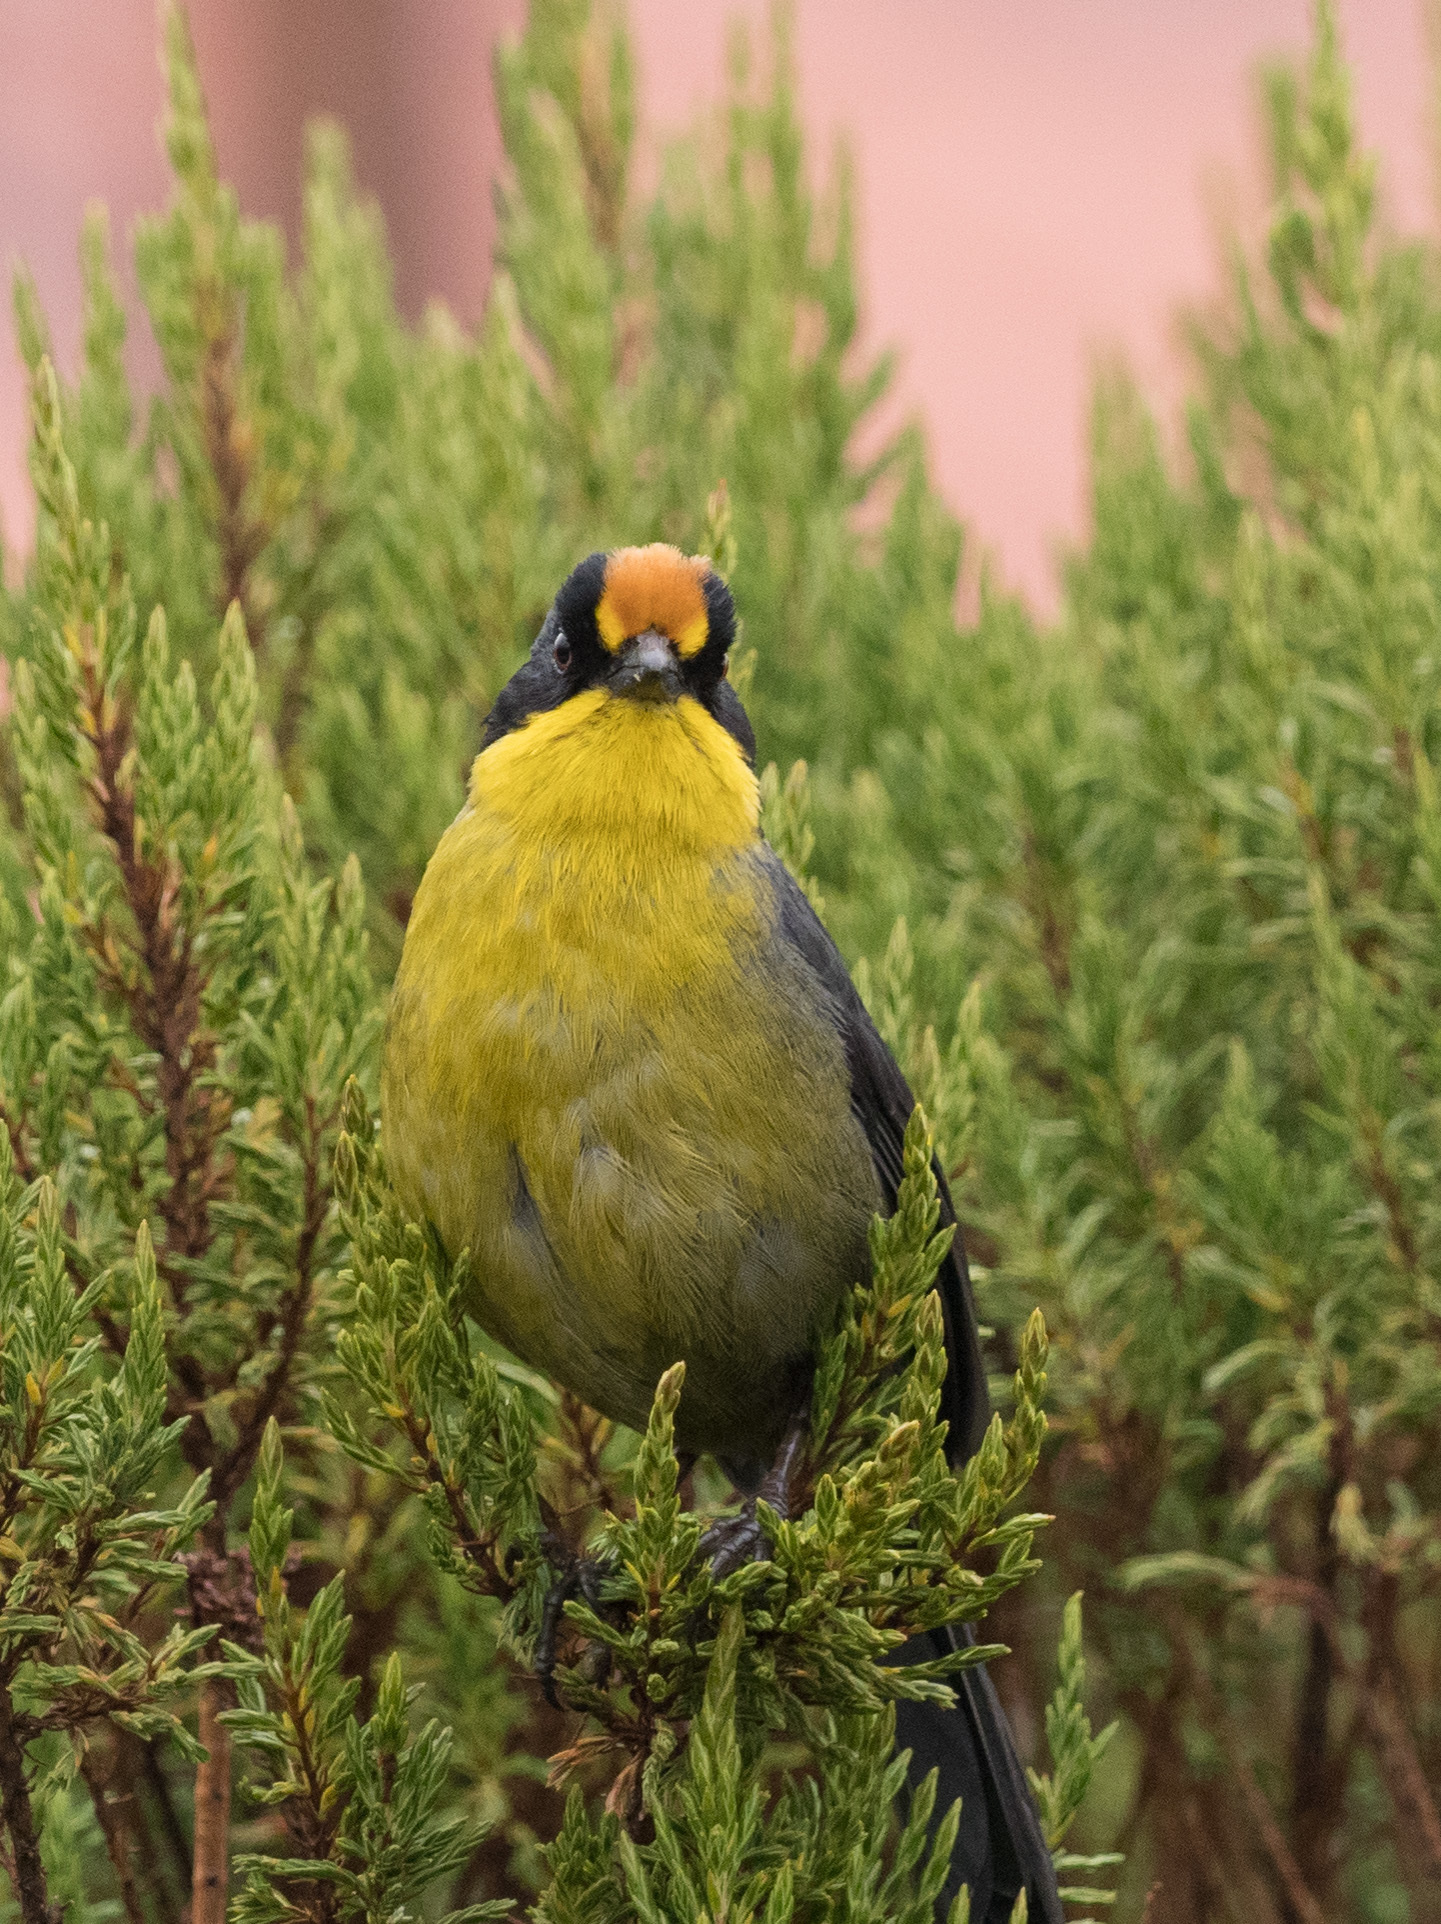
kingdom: Animalia
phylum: Chordata
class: Aves
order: Passeriformes
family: Passerellidae
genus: Atlapetes
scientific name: Atlapetes pallidinucha
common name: Pale-naped brushfinch
